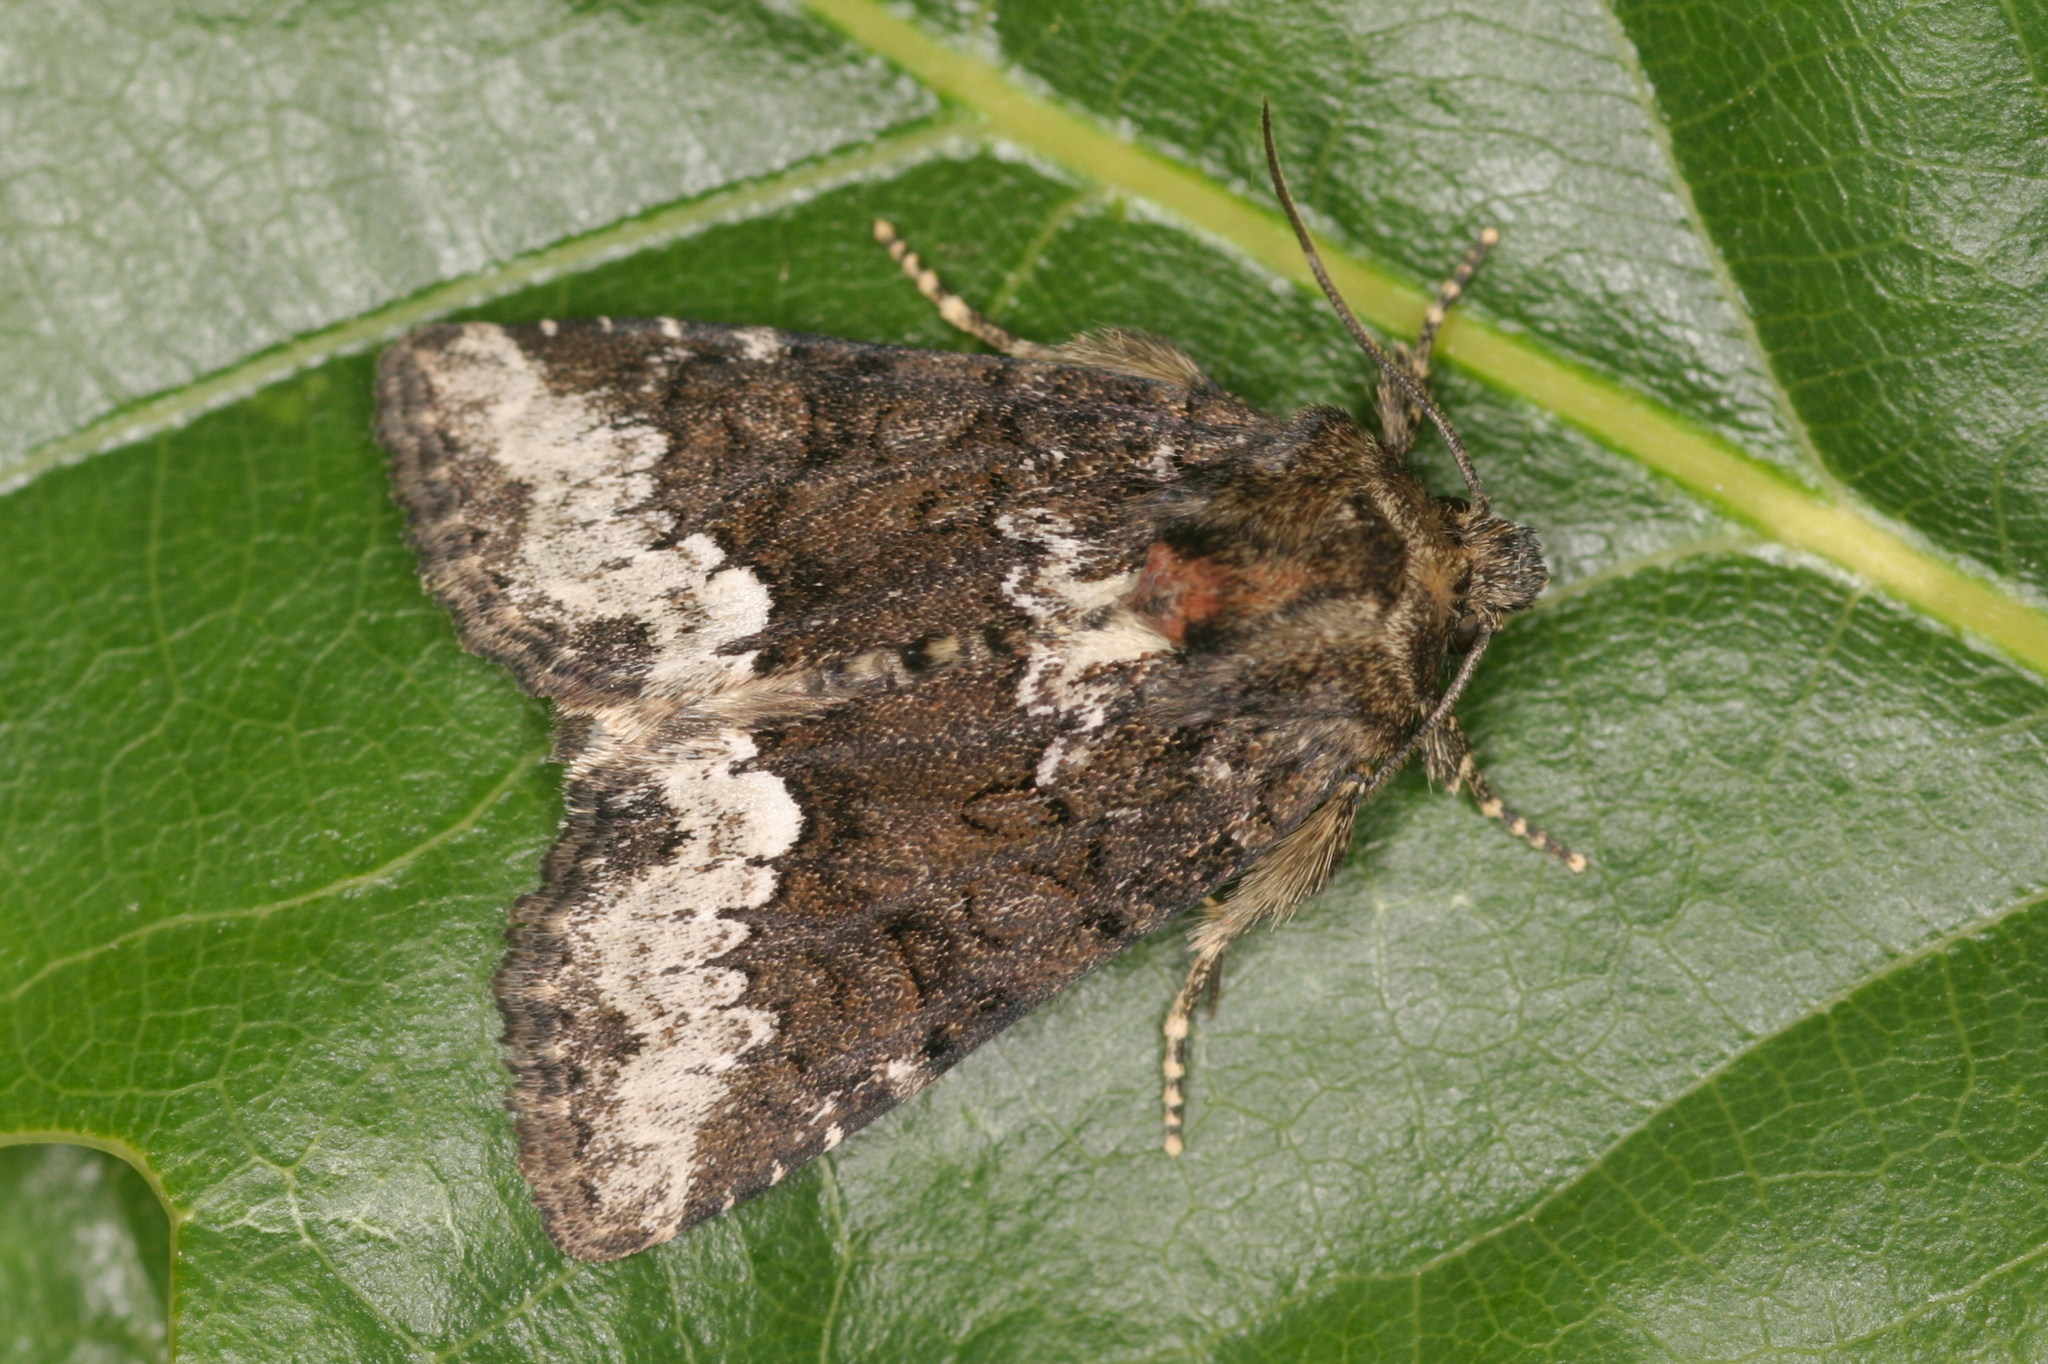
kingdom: Animalia
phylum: Arthropoda
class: Insecta
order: Lepidoptera
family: Noctuidae
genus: Oligia
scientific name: Oligia strigilis
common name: Marbled minor
